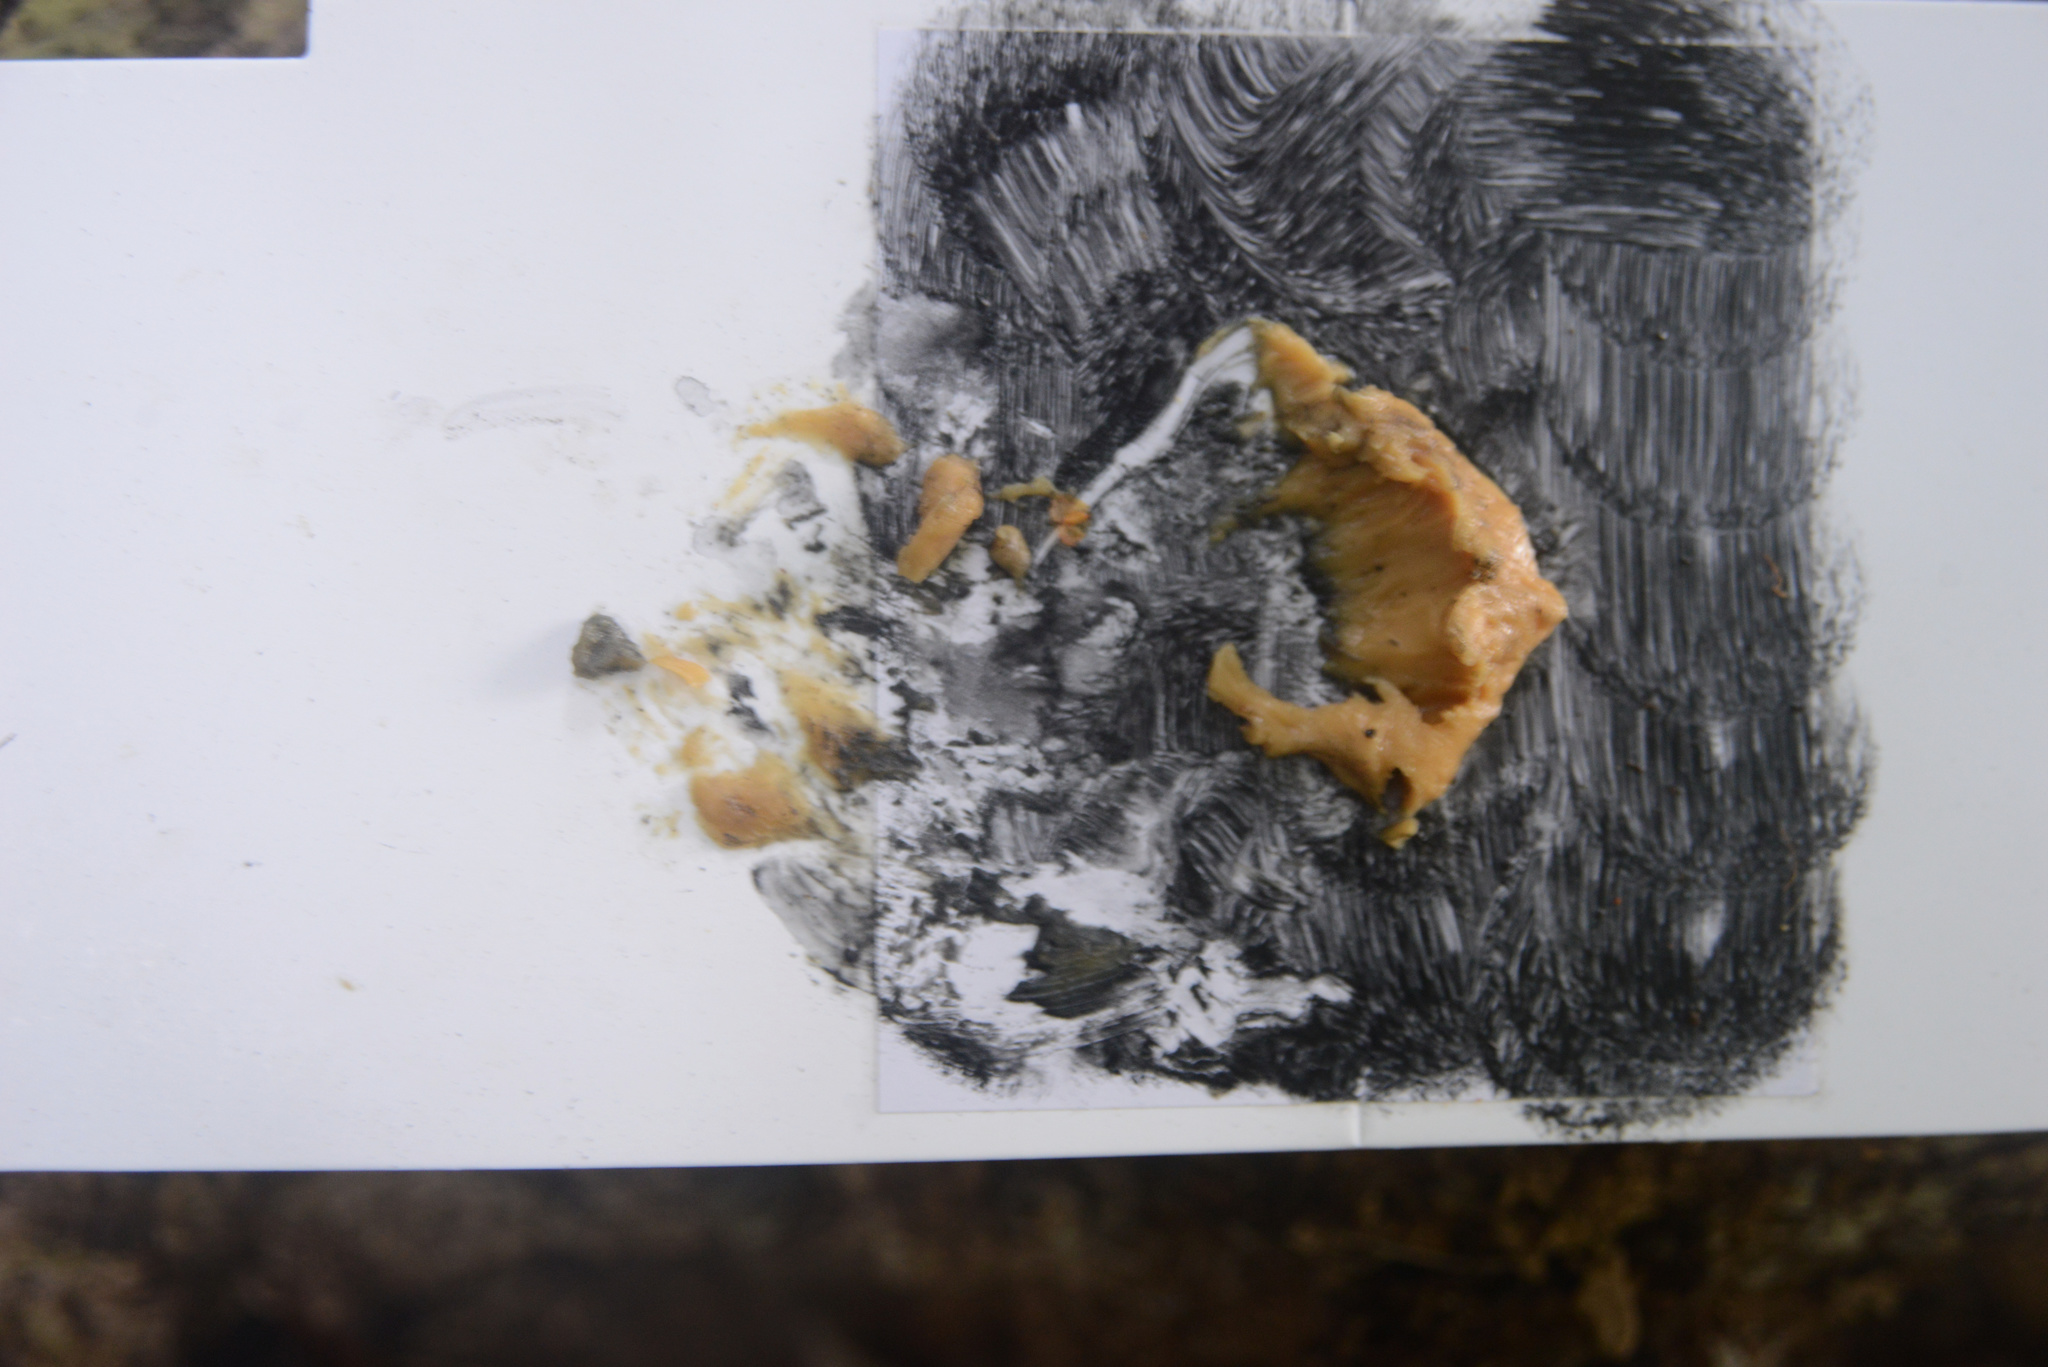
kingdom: Animalia
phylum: Chordata
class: Mammalia
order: Diprotodontia
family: Phalangeridae
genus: Trichosurus
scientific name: Trichosurus vulpecula
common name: Common brushtail
